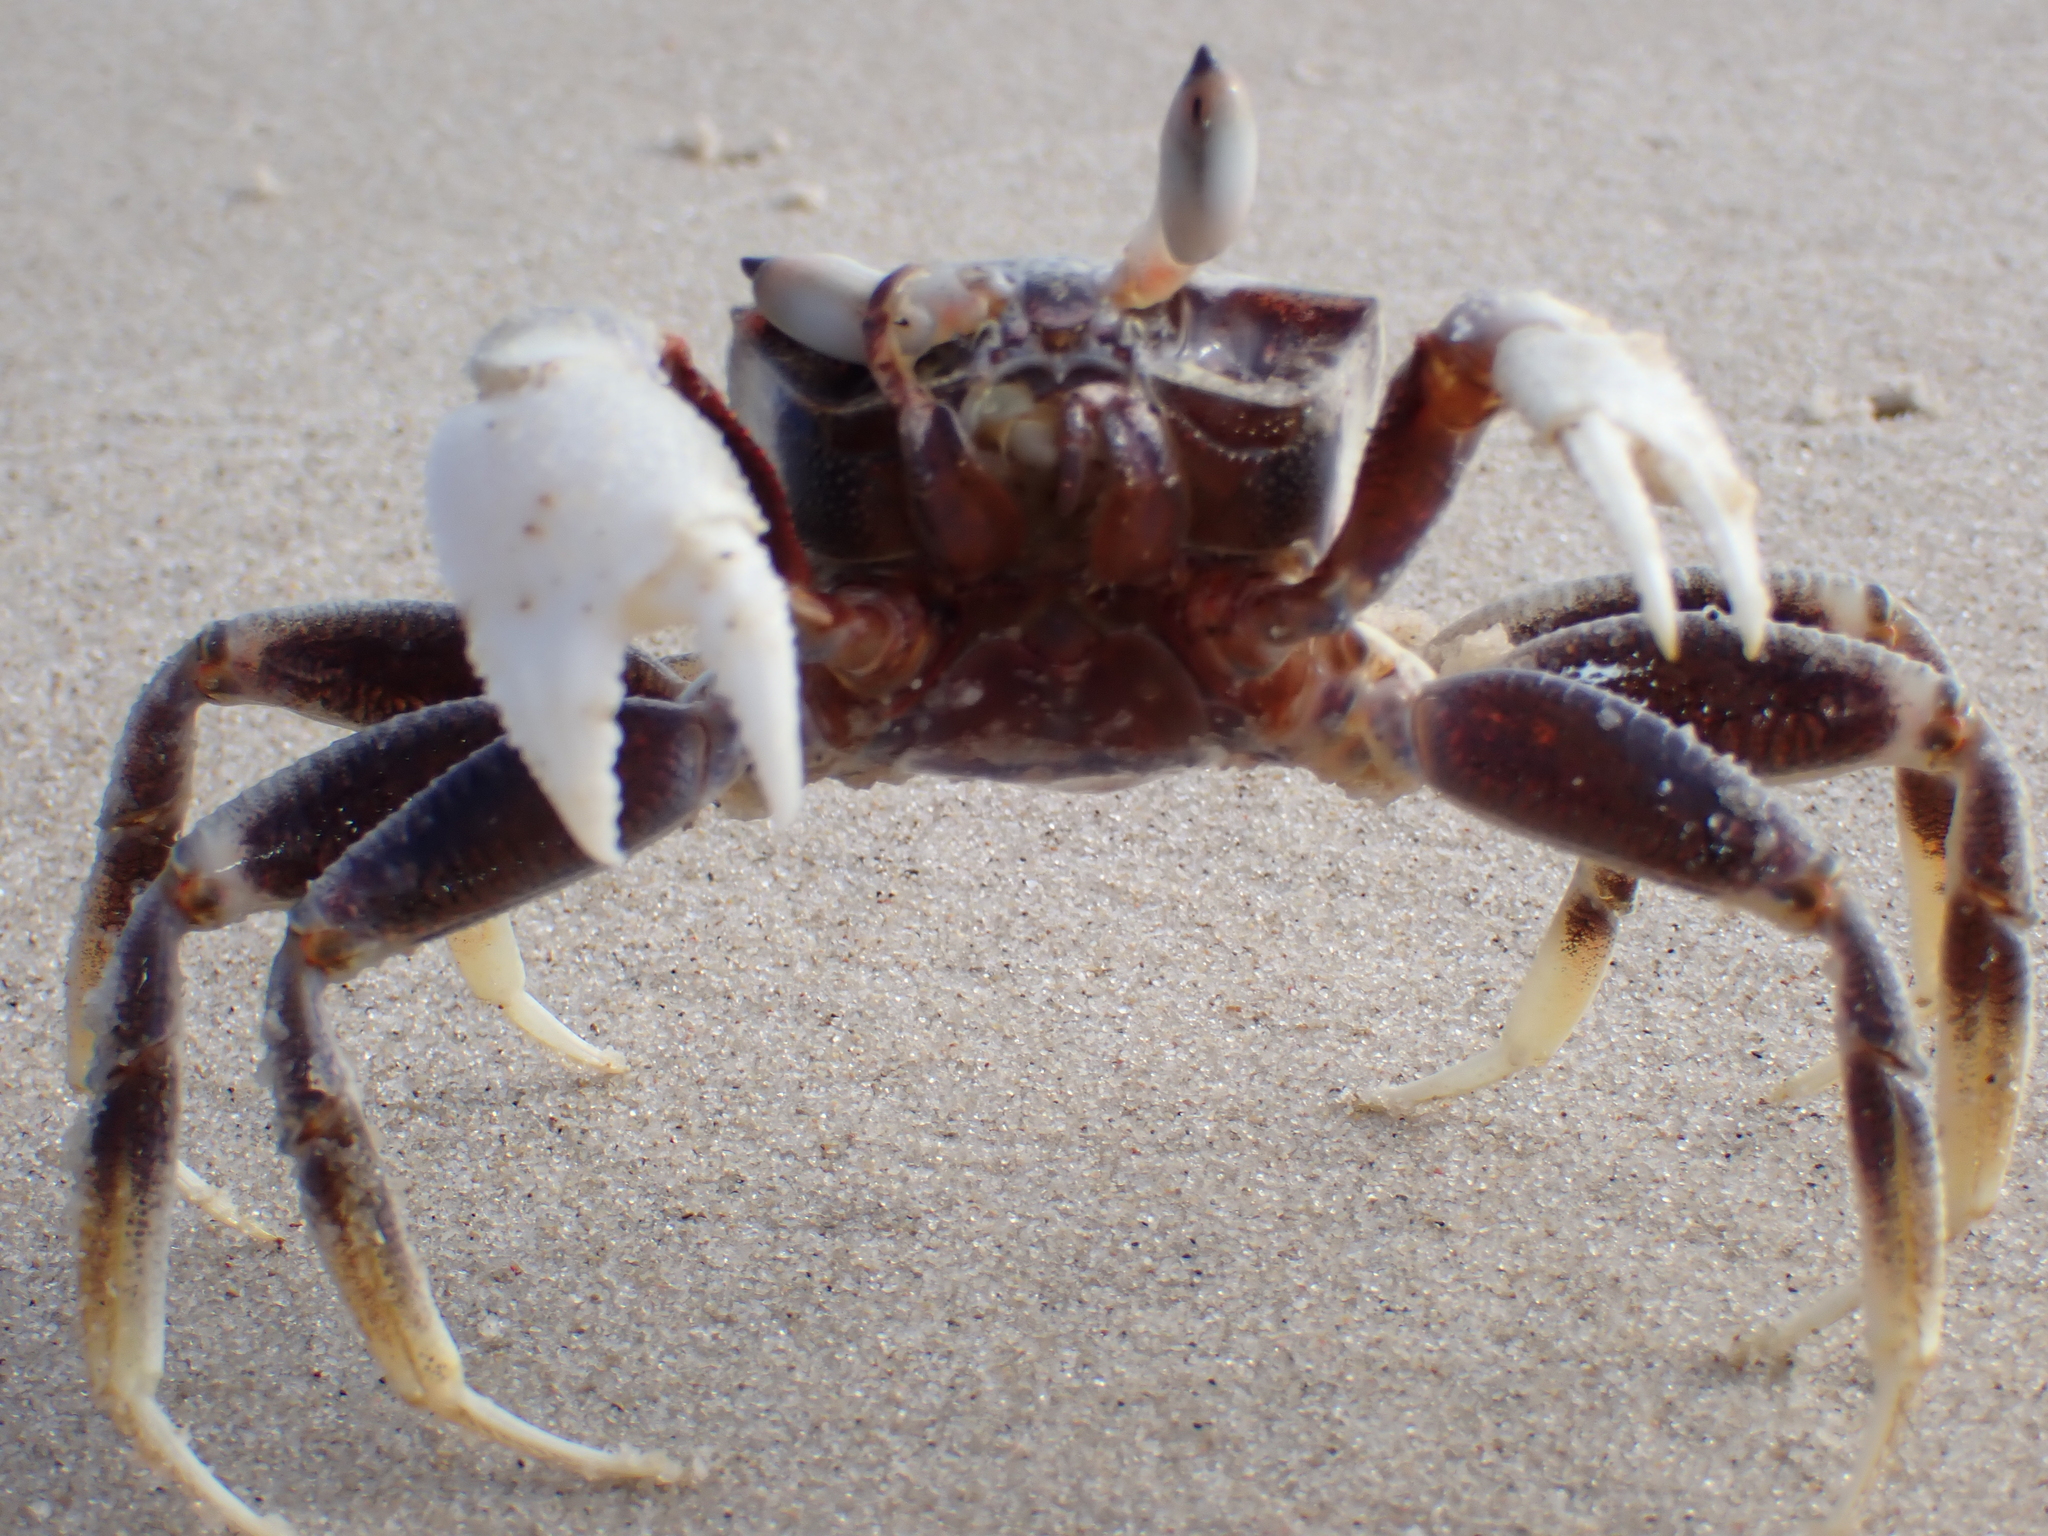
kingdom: Animalia
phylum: Arthropoda
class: Malacostraca
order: Decapoda
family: Ocypodidae
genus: Ocypode
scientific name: Ocypode ceratophthalmus
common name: Indo-pacific ghost crab
